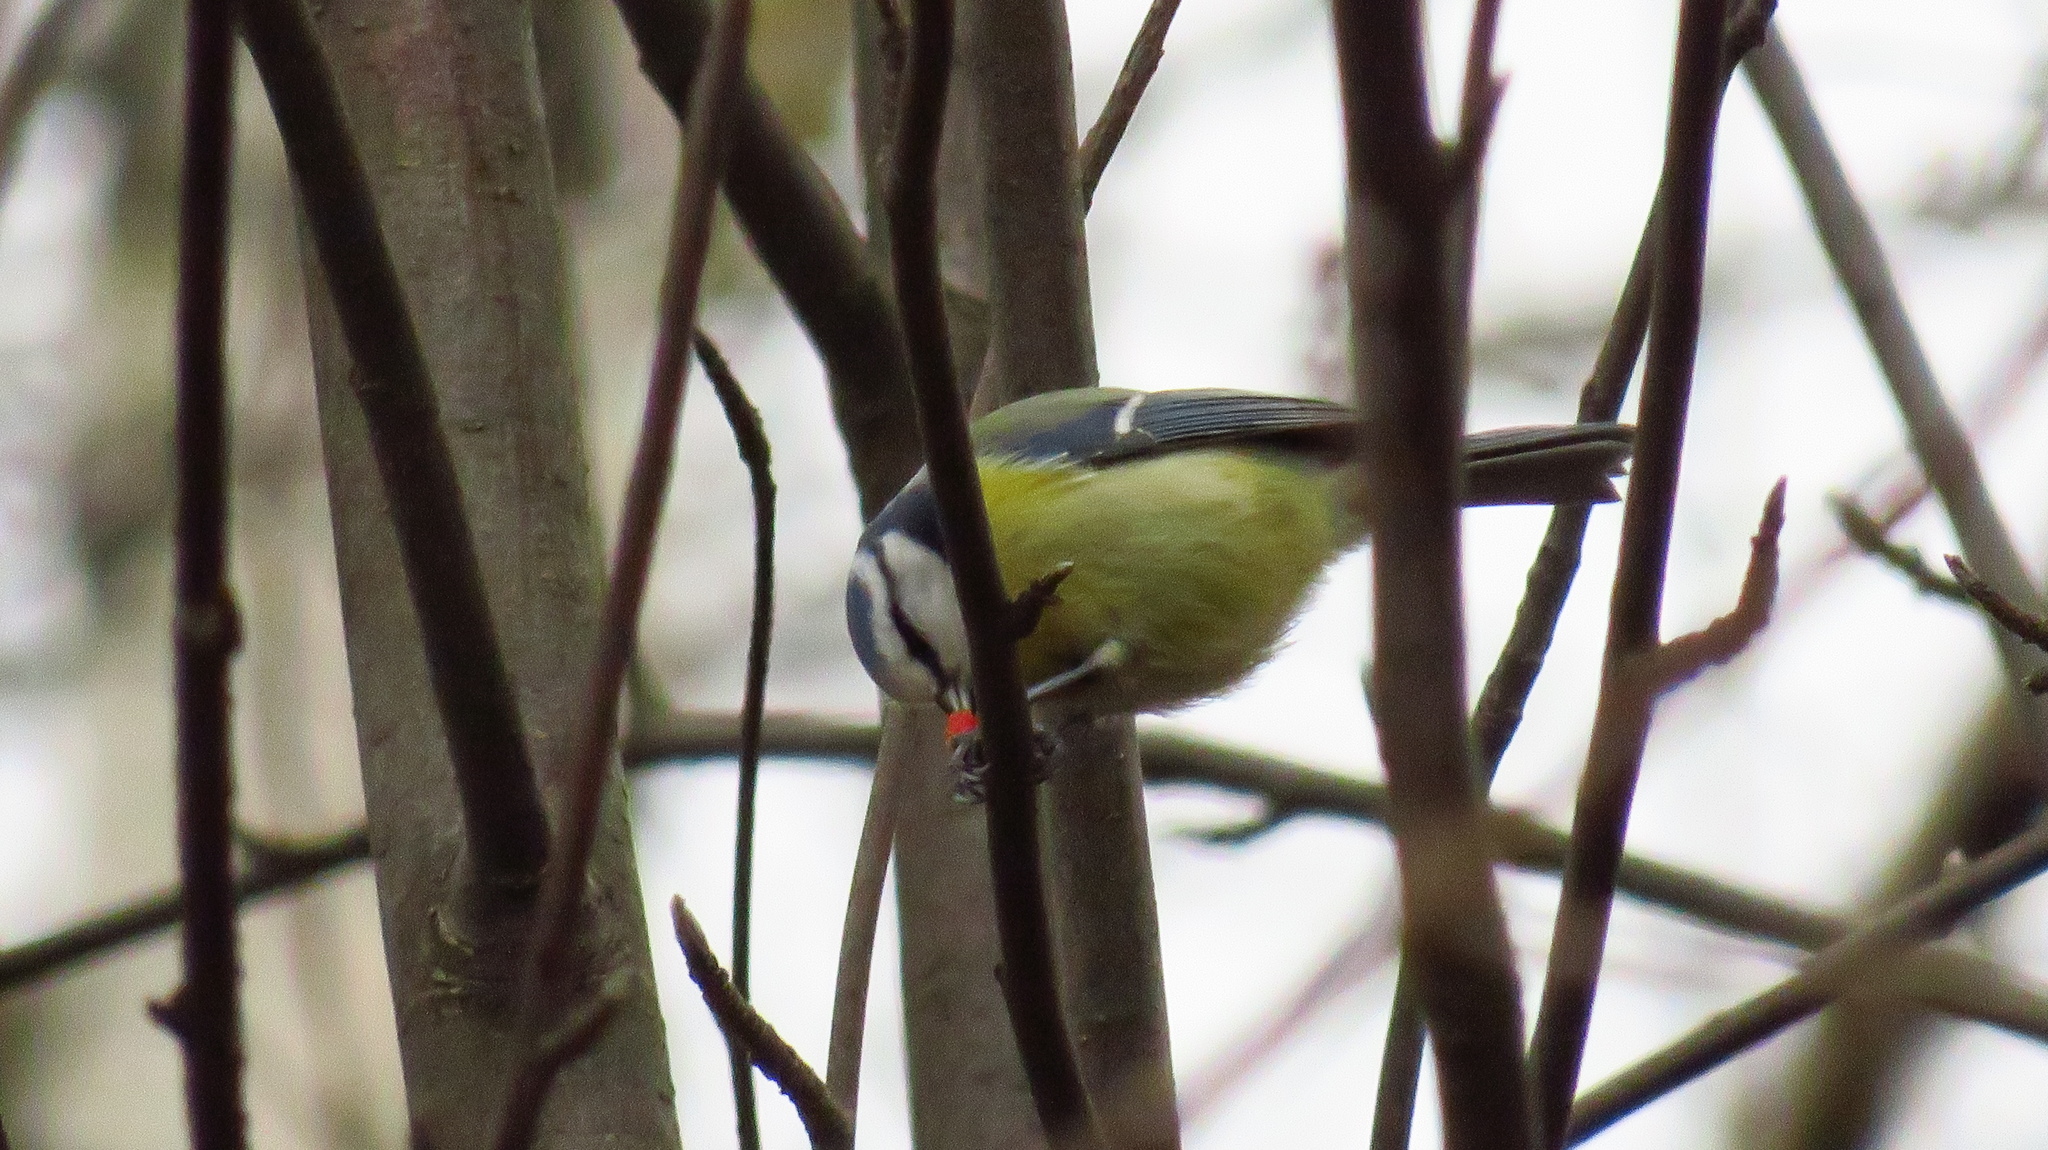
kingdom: Animalia
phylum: Chordata
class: Aves
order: Passeriformes
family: Paridae
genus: Cyanistes
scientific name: Cyanistes caeruleus
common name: Eurasian blue tit
